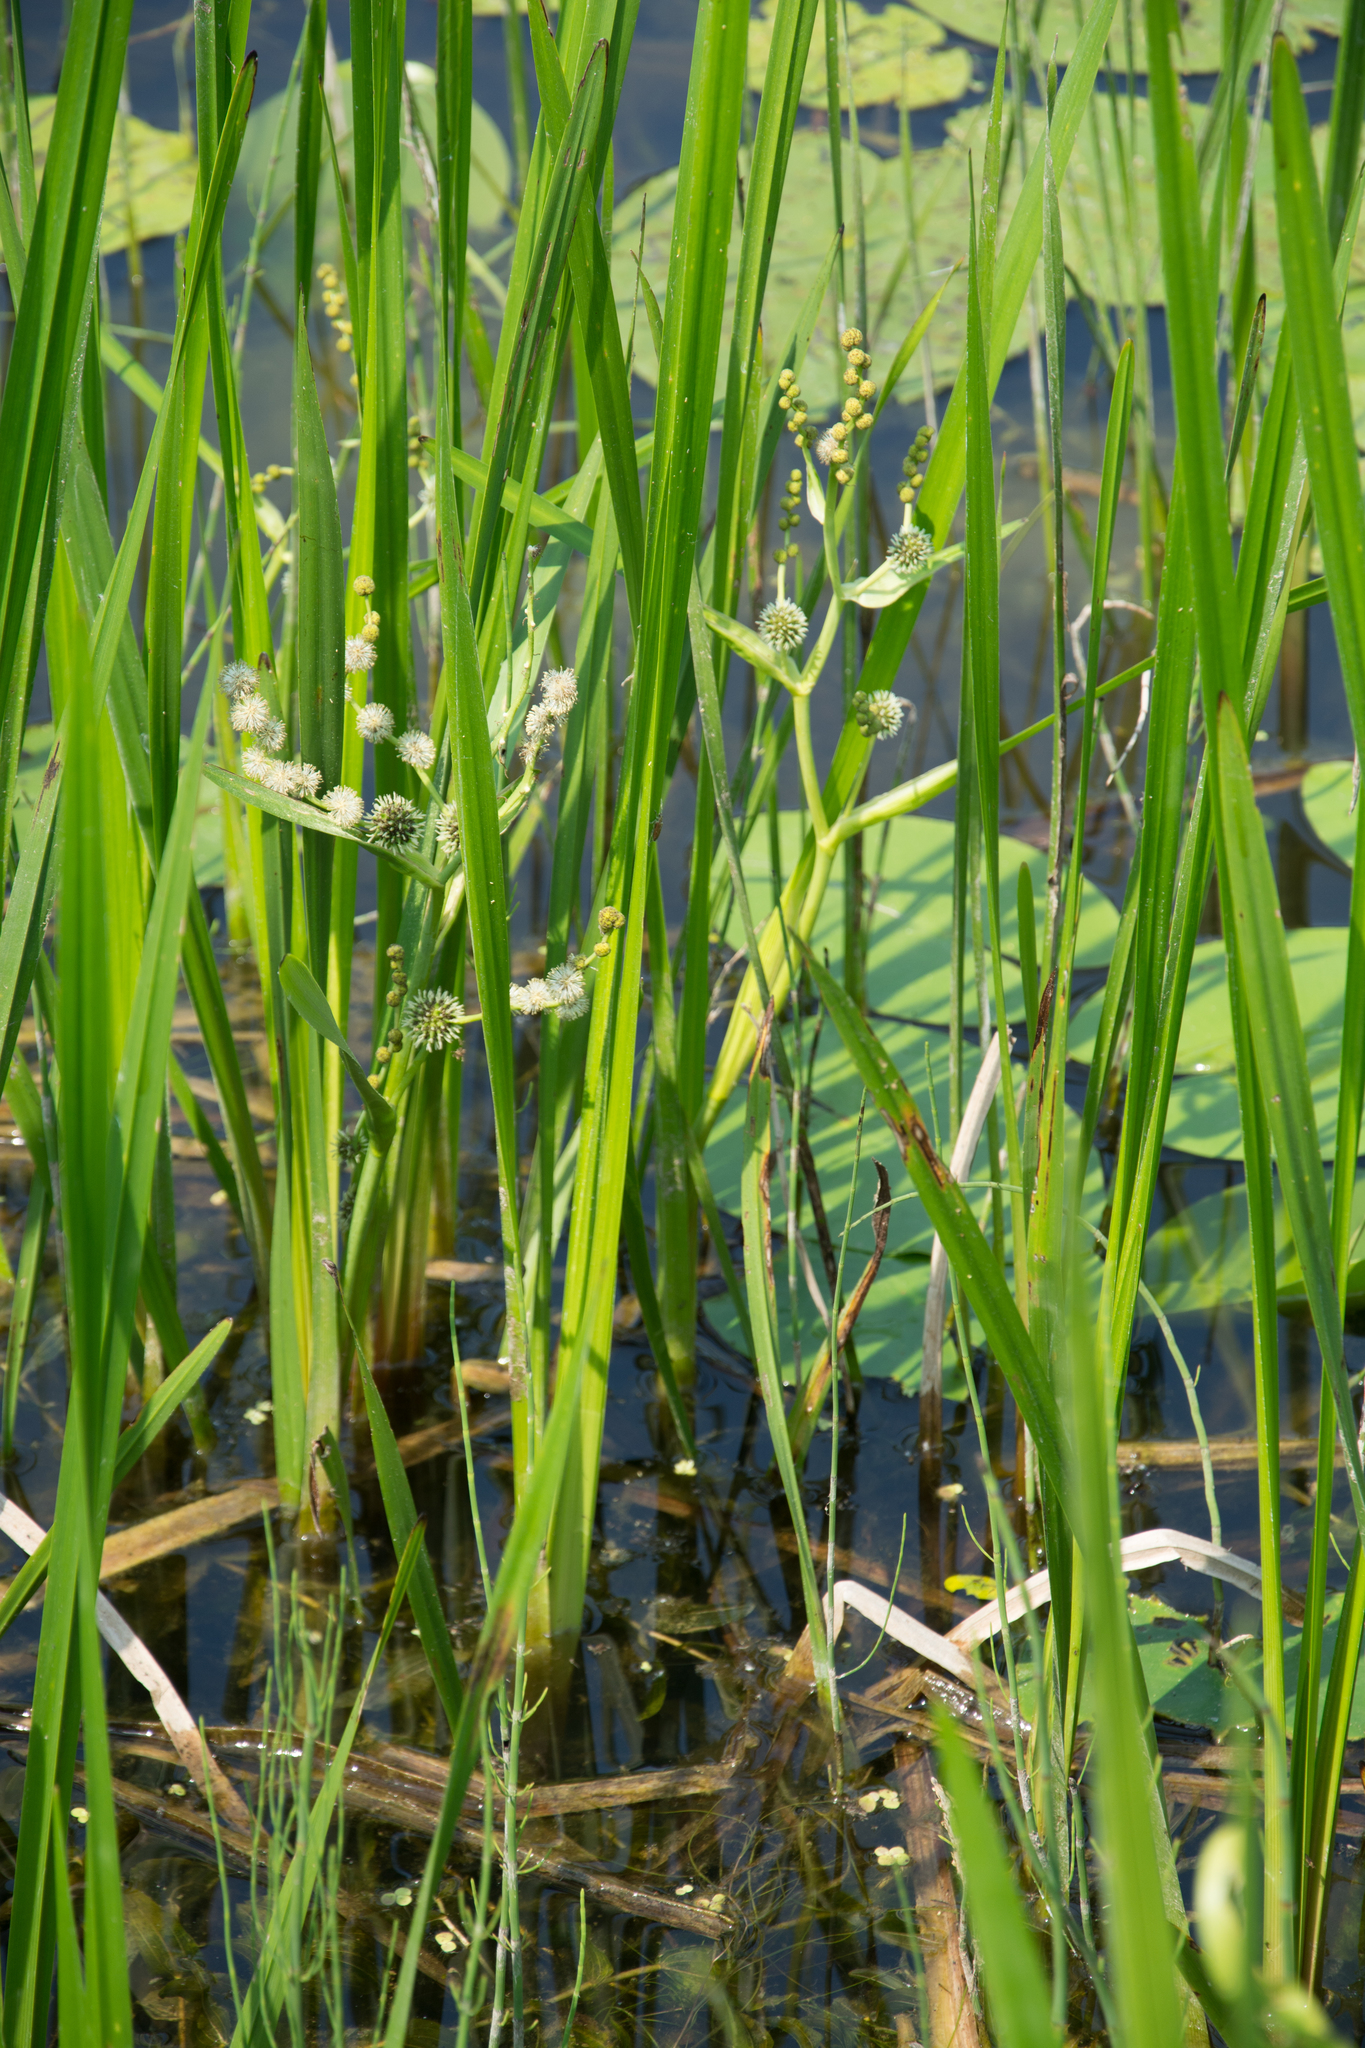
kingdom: Plantae
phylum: Tracheophyta
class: Liliopsida
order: Poales
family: Typhaceae
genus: Sparganium
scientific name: Sparganium erectum
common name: Branched bur-reed
